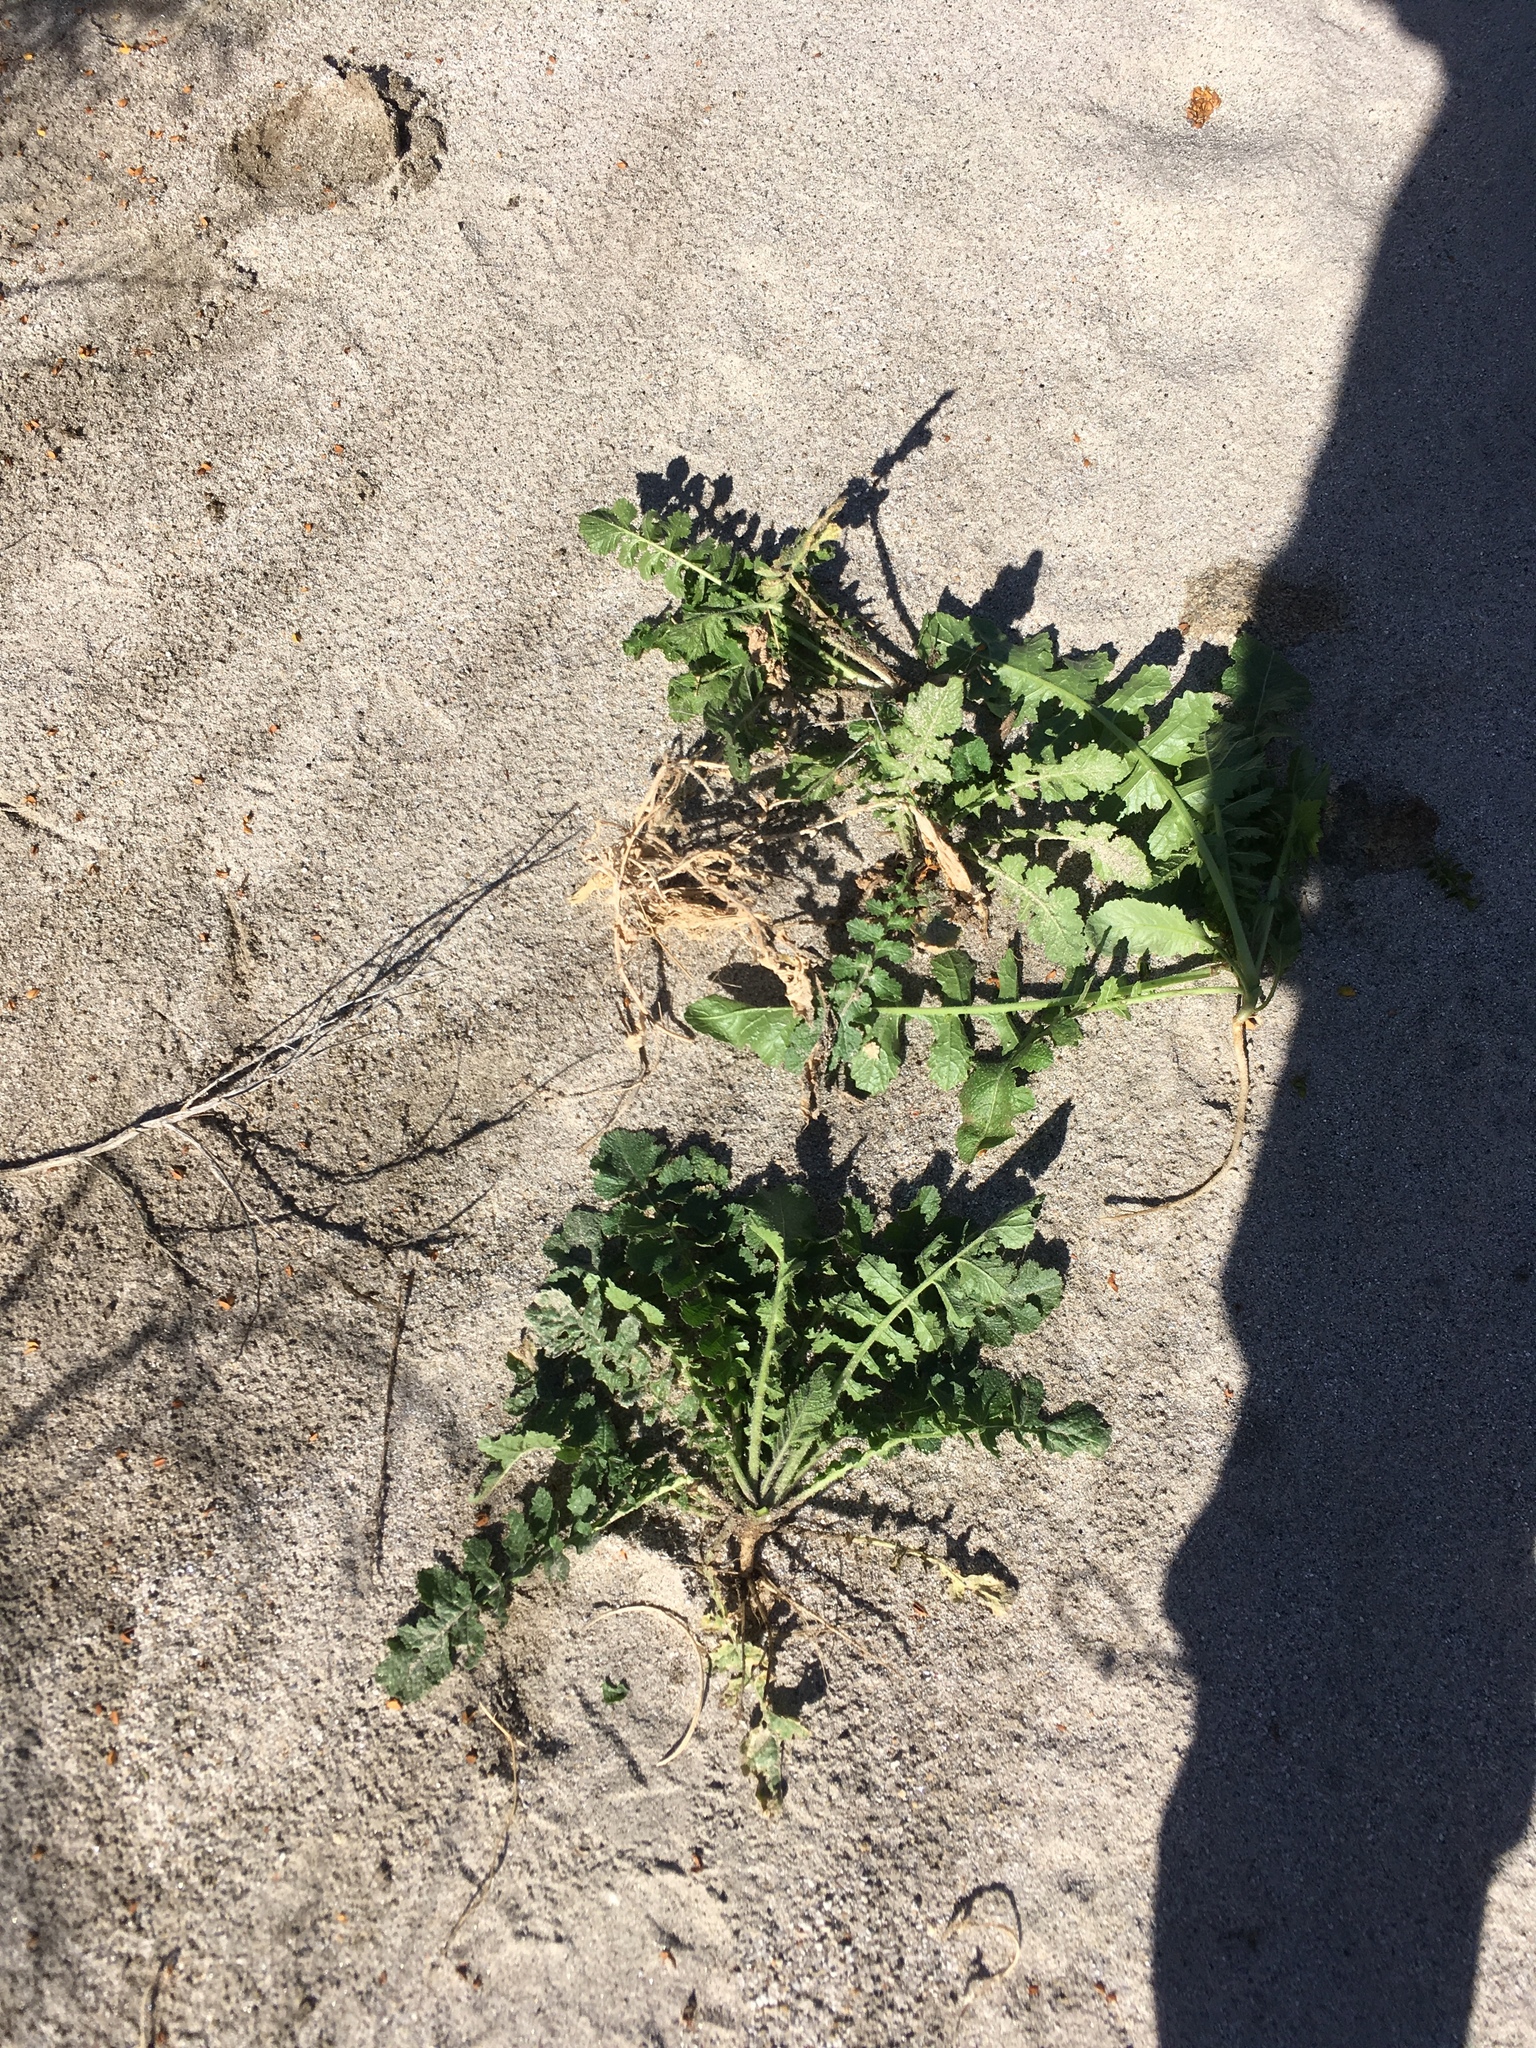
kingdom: Plantae
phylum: Tracheophyta
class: Magnoliopsida
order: Brassicales
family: Brassicaceae
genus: Brassica
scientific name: Brassica tournefortii
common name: Pale cabbage
